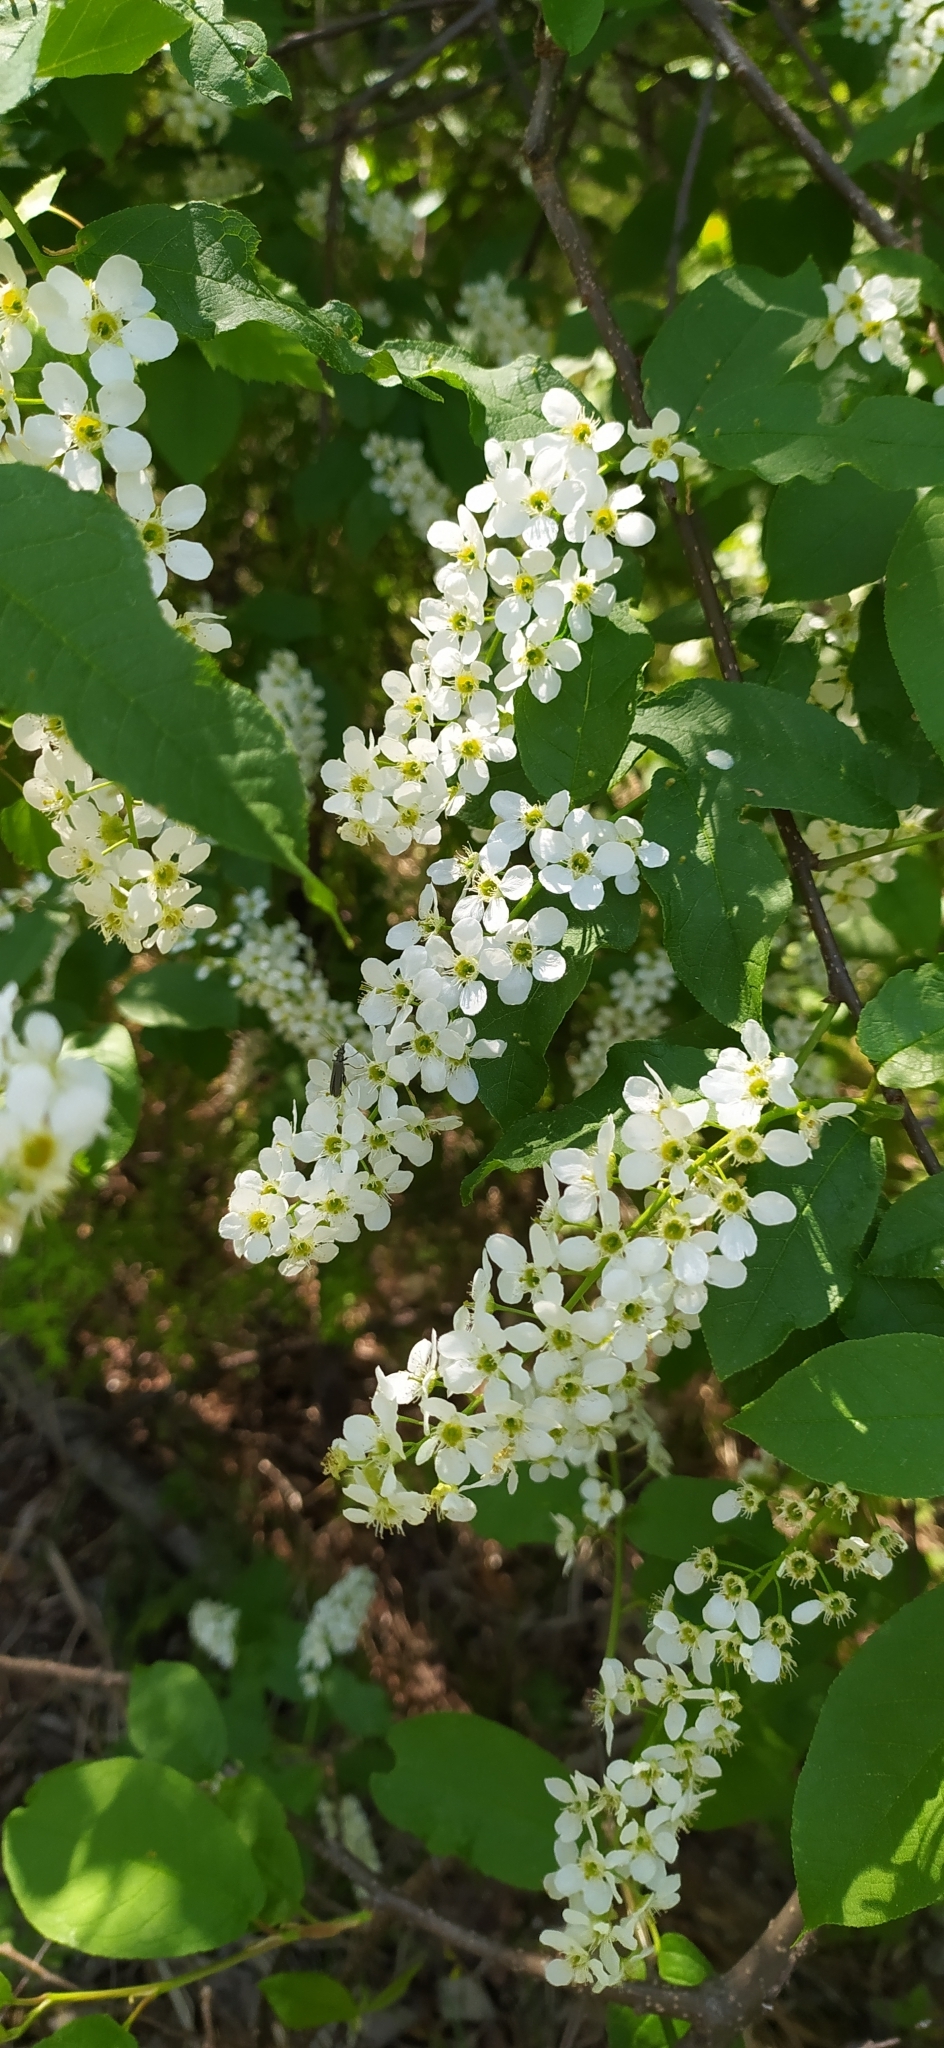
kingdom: Plantae
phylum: Tracheophyta
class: Magnoliopsida
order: Rosales
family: Rosaceae
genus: Prunus
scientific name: Prunus padus
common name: Bird cherry
